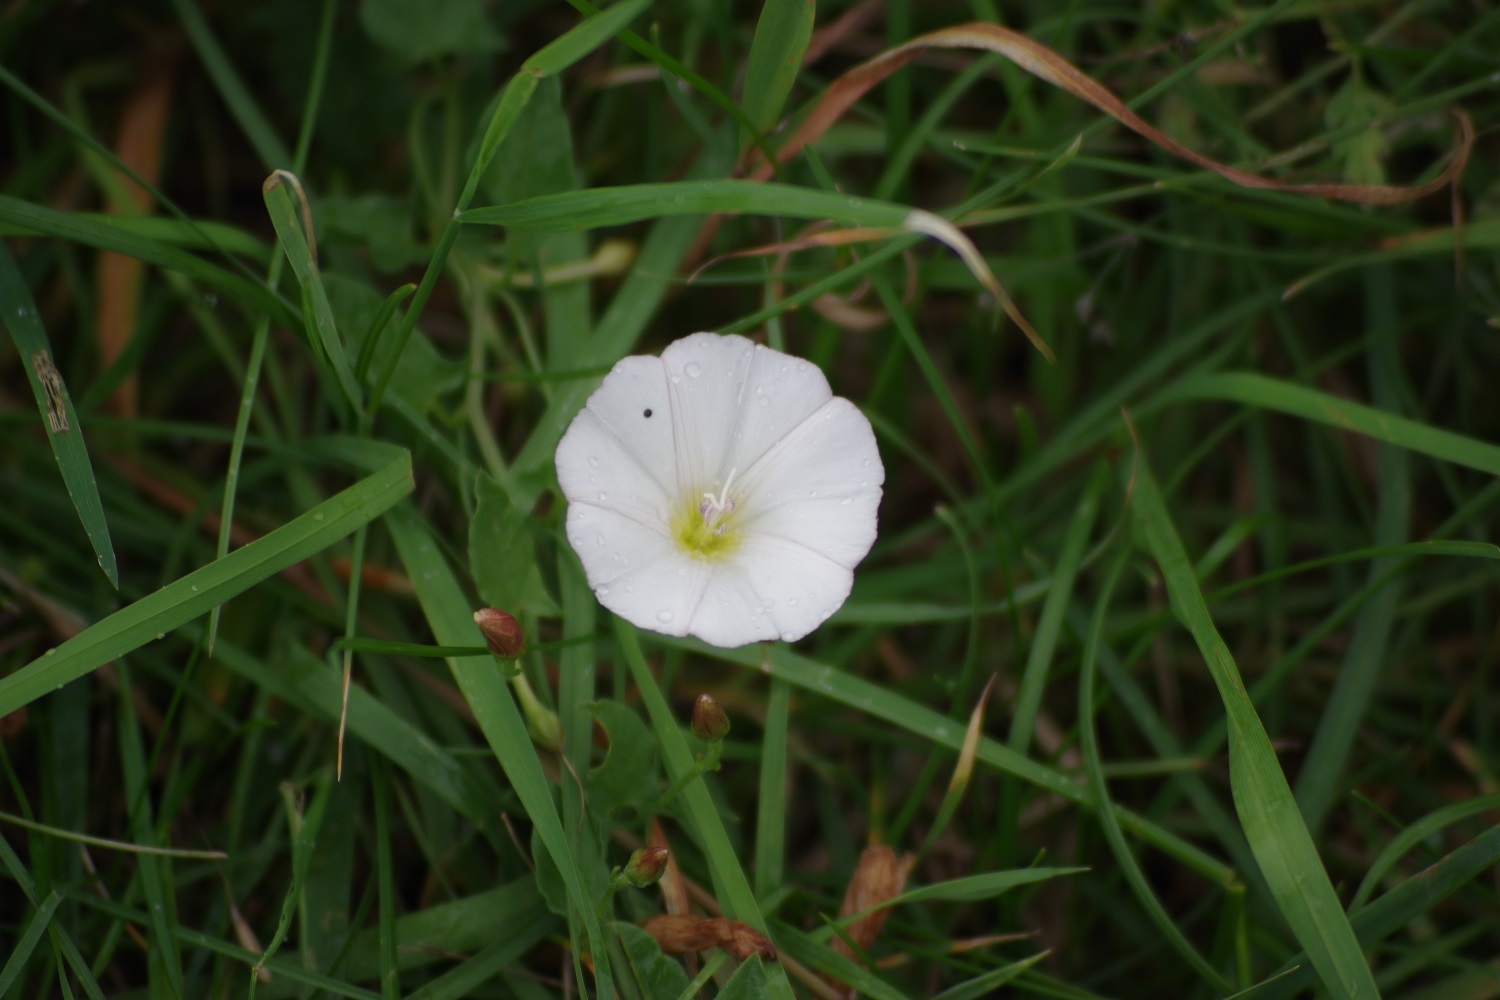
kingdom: Plantae
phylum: Tracheophyta
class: Magnoliopsida
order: Solanales
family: Convolvulaceae
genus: Convolvulus
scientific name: Convolvulus arvensis
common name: Field bindweed
